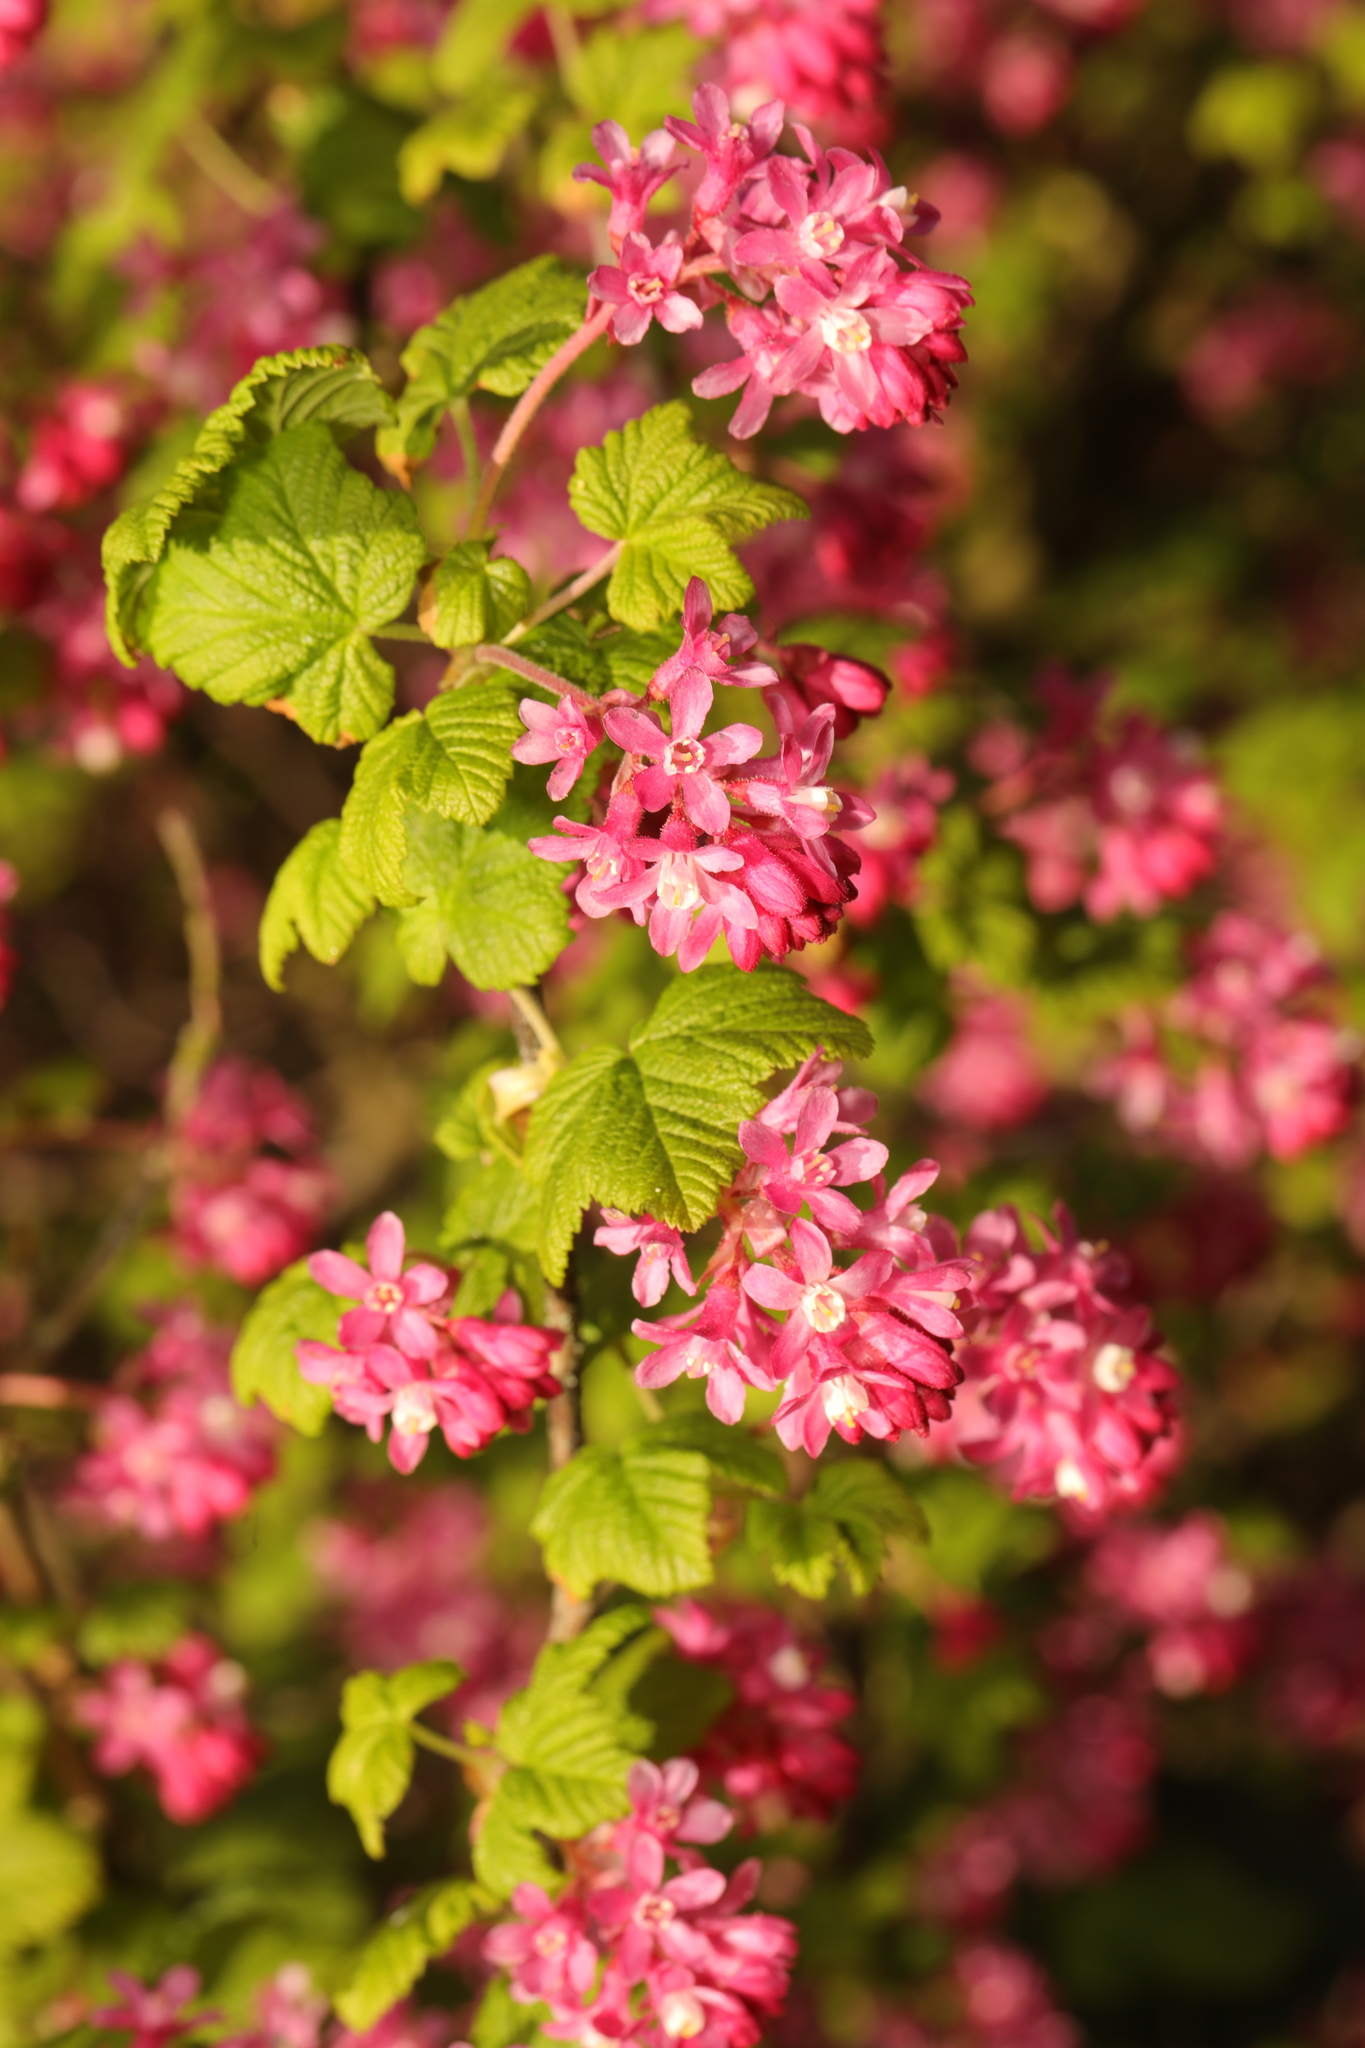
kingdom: Plantae
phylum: Tracheophyta
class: Magnoliopsida
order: Saxifragales
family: Grossulariaceae
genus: Ribes
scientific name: Ribes sanguineum
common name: Flowering currant
